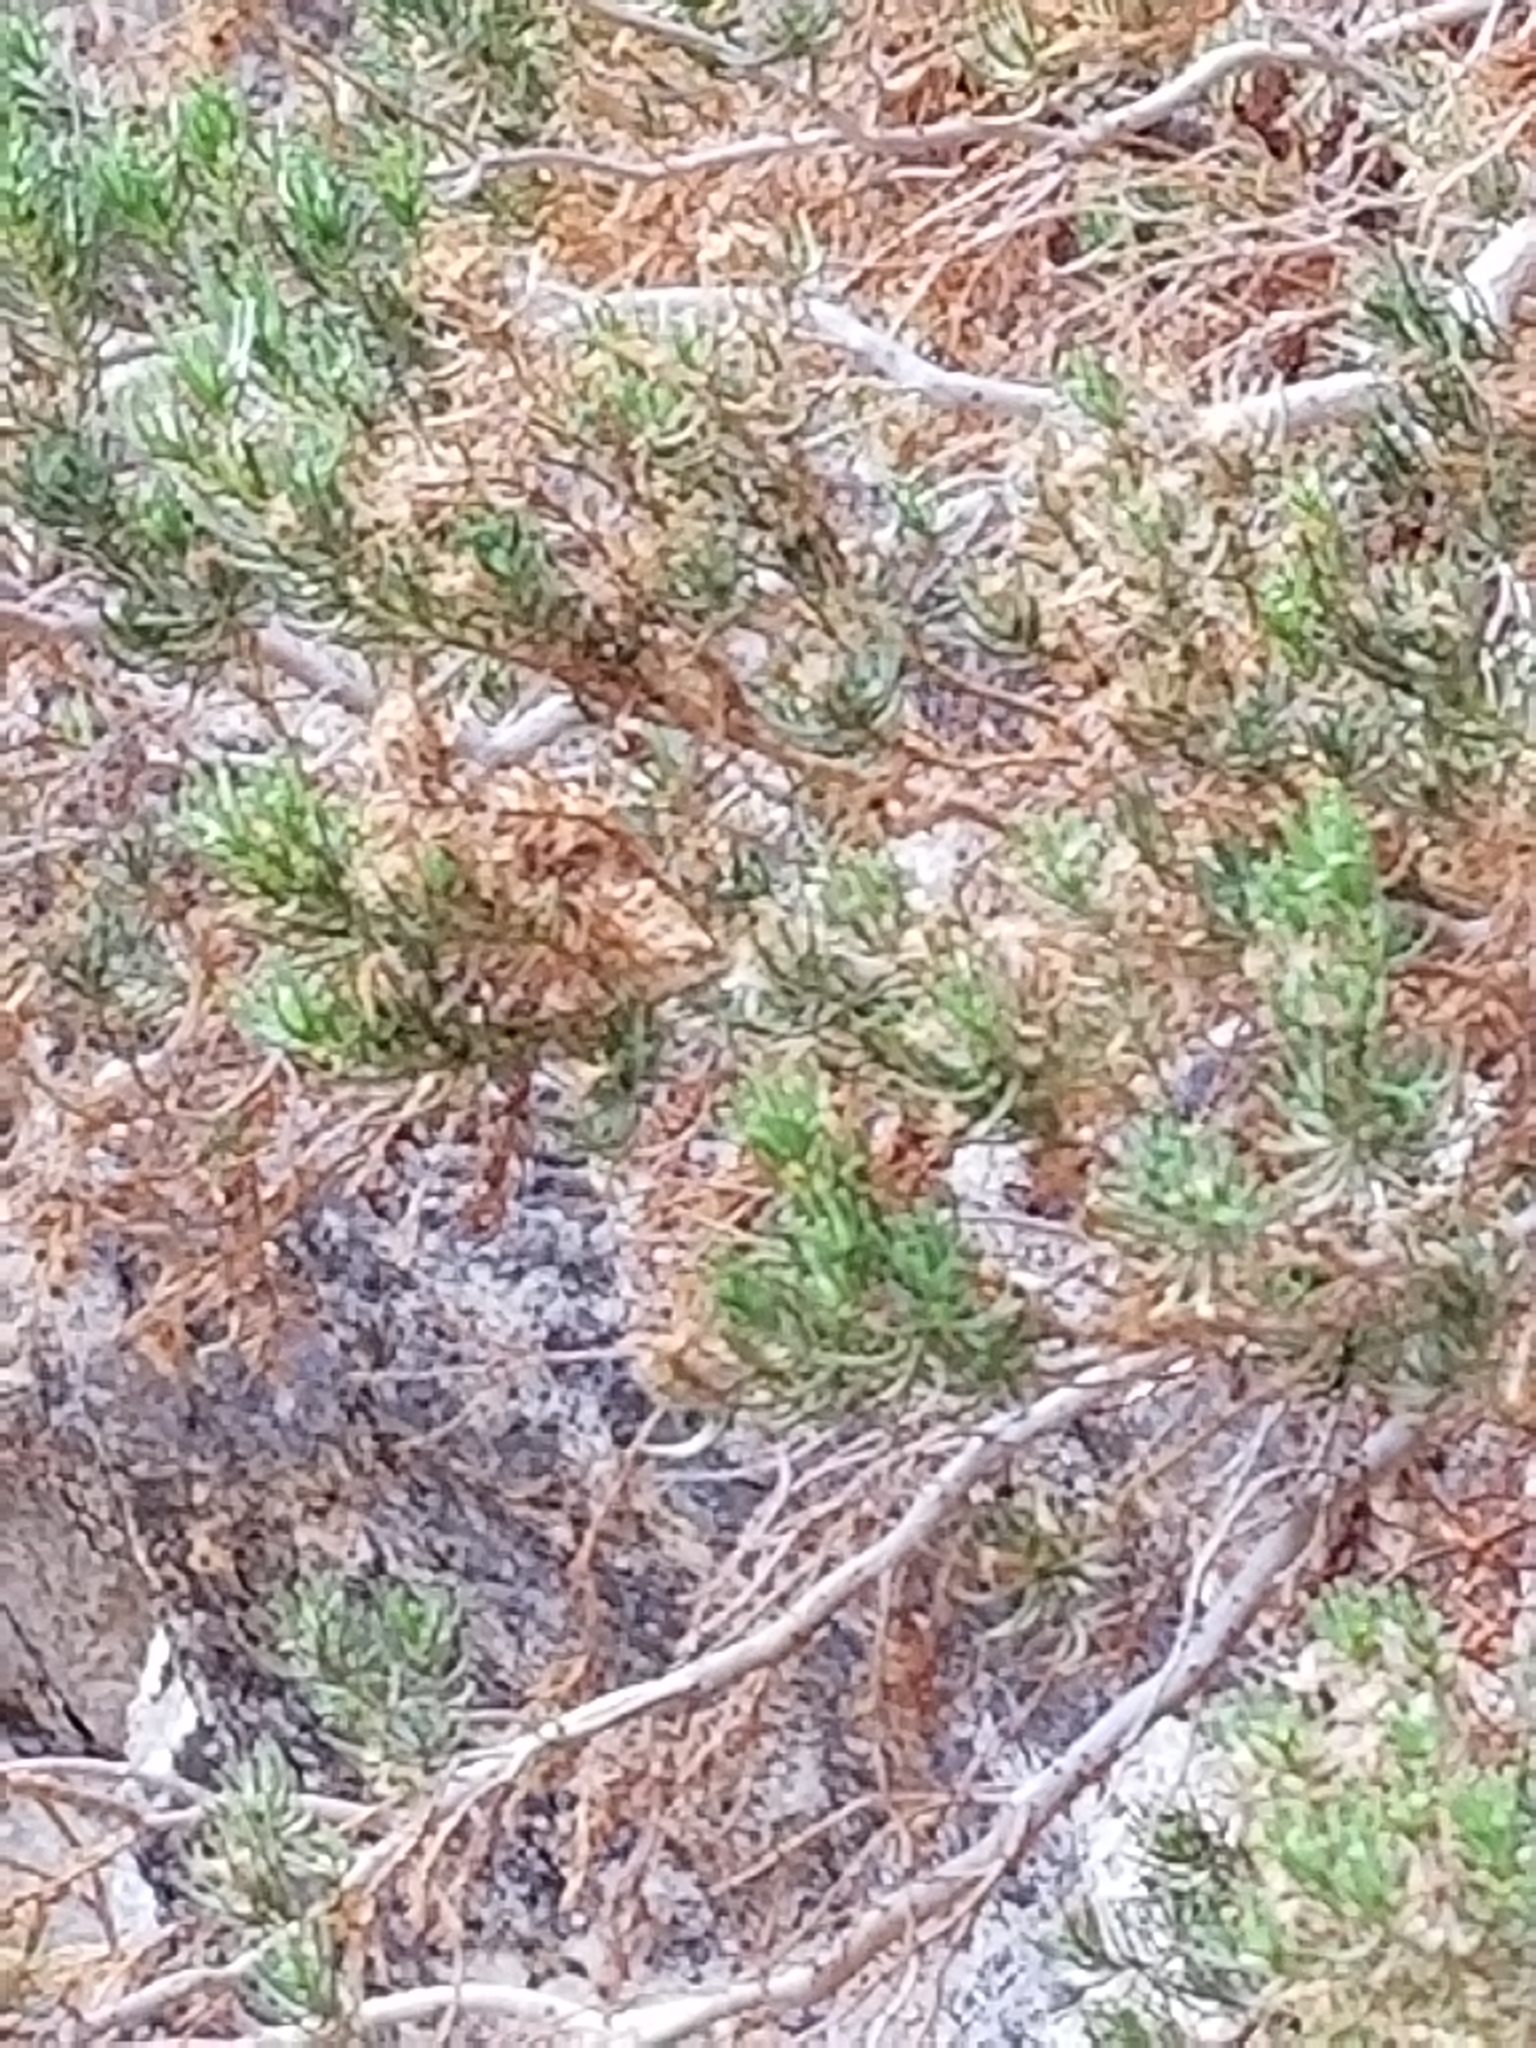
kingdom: Plantae
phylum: Tracheophyta
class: Magnoliopsida
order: Asterales
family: Asteraceae
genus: Peucephyllum
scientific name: Peucephyllum schottii
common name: Pygmy-cedar
